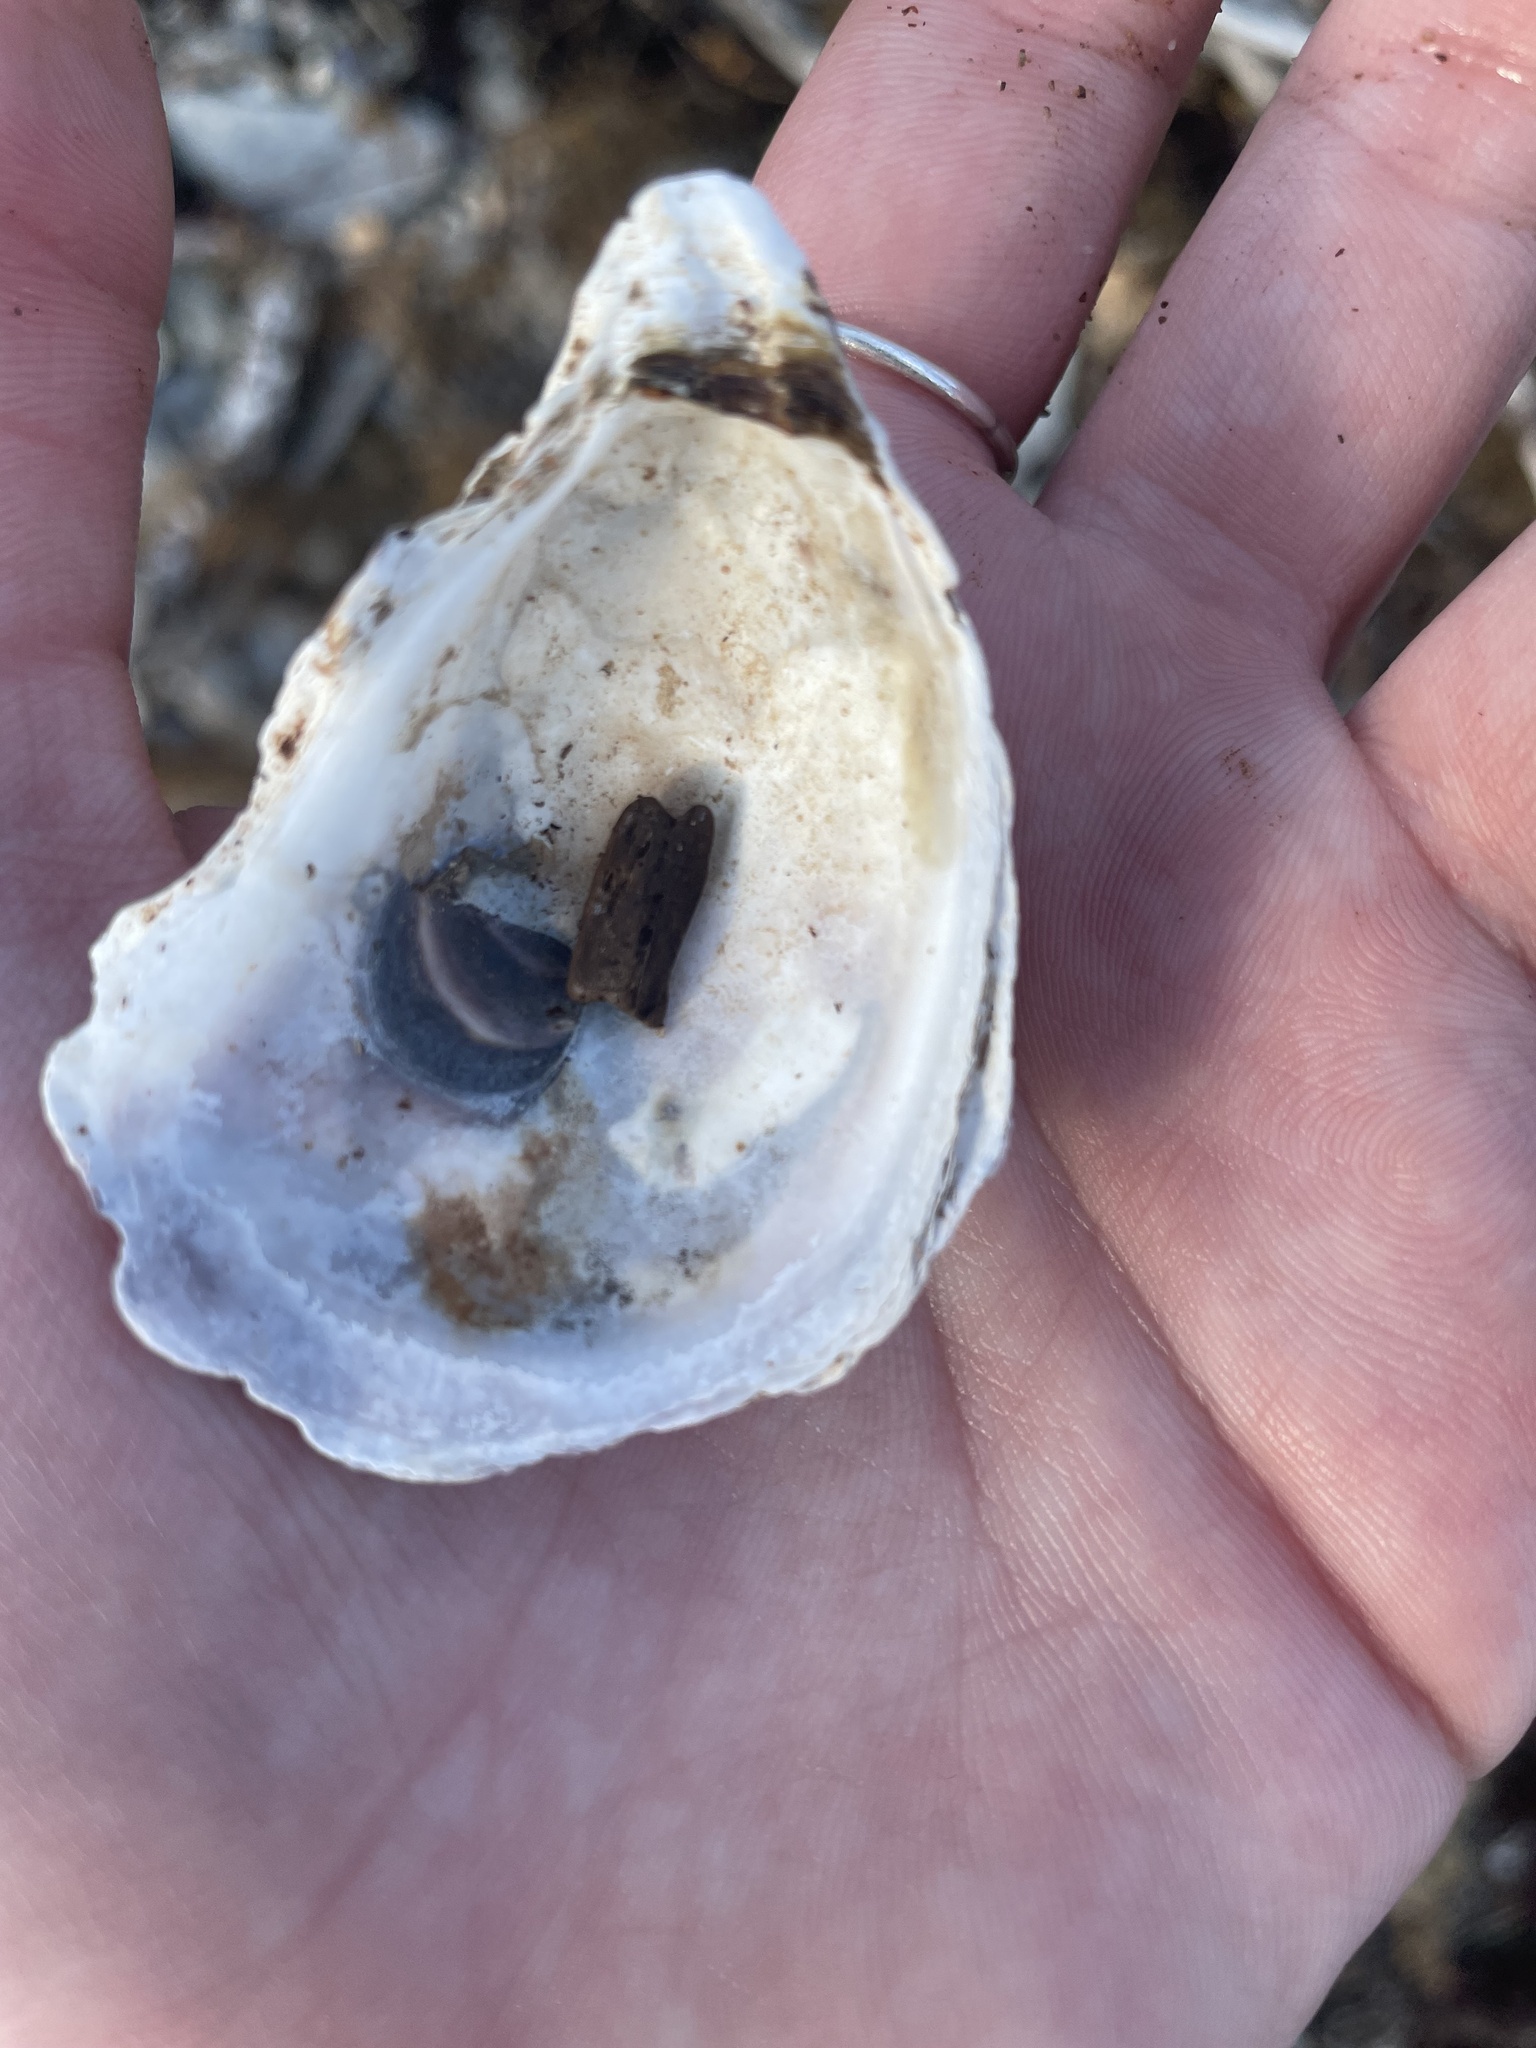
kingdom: Animalia
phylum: Mollusca
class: Bivalvia
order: Ostreida
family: Ostreidae
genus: Crassostrea
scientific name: Crassostrea virginica
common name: American oyster
